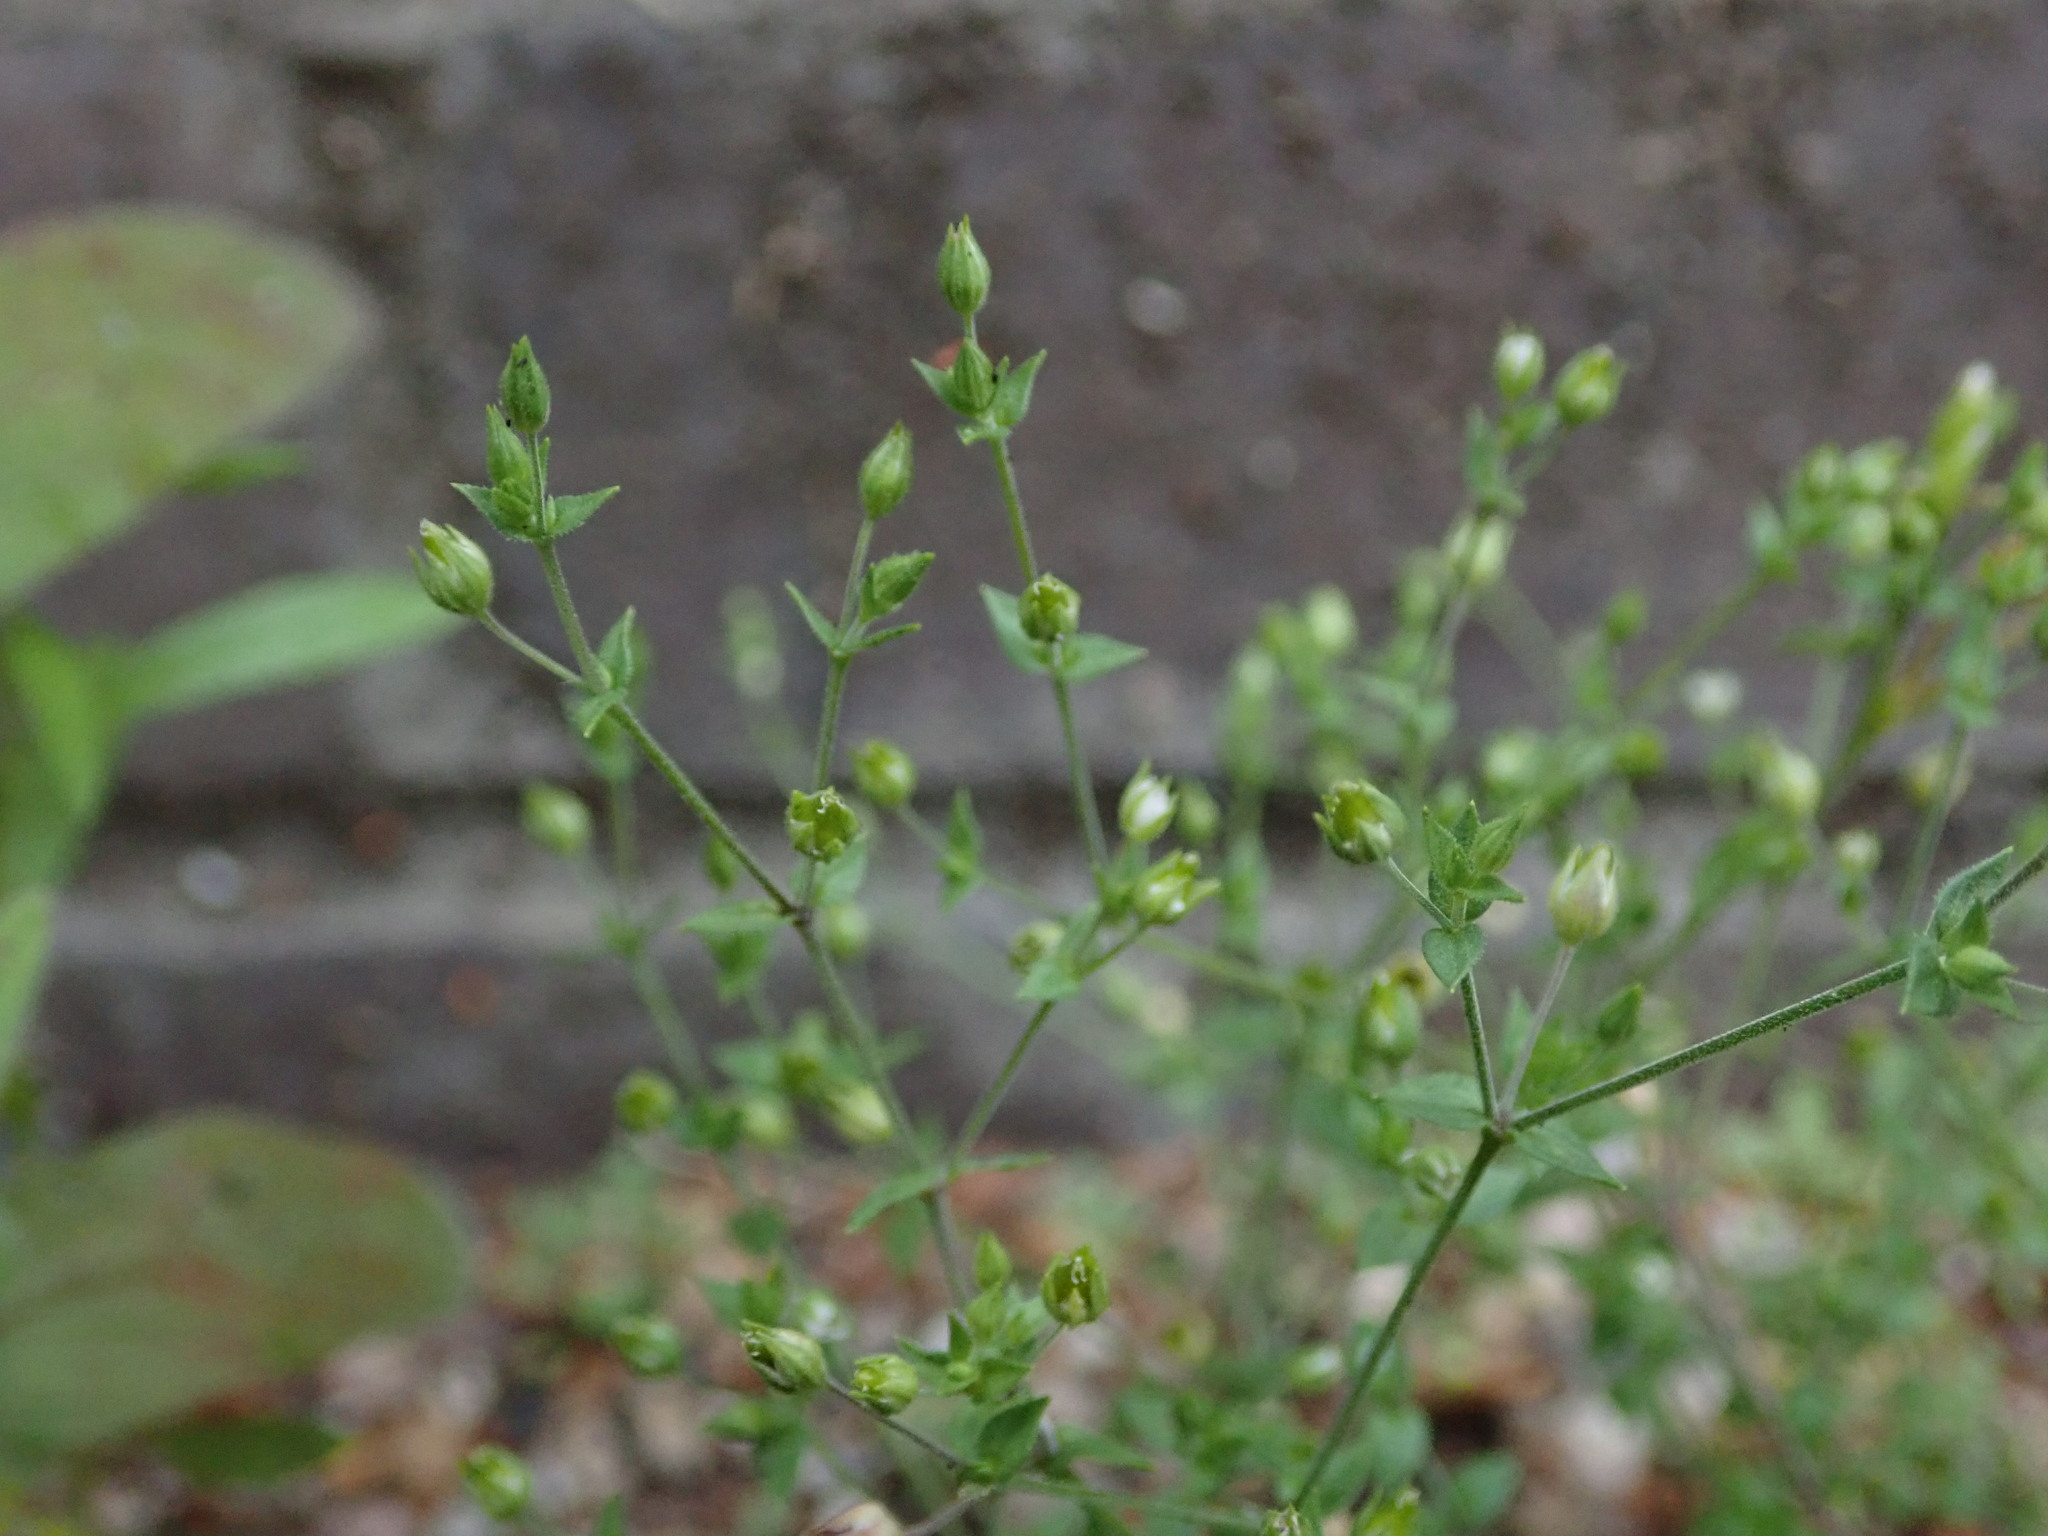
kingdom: Plantae
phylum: Tracheophyta
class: Magnoliopsida
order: Caryophyllales
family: Caryophyllaceae
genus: Arenaria
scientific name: Arenaria serpyllifolia
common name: Thyme-leaved sandwort
